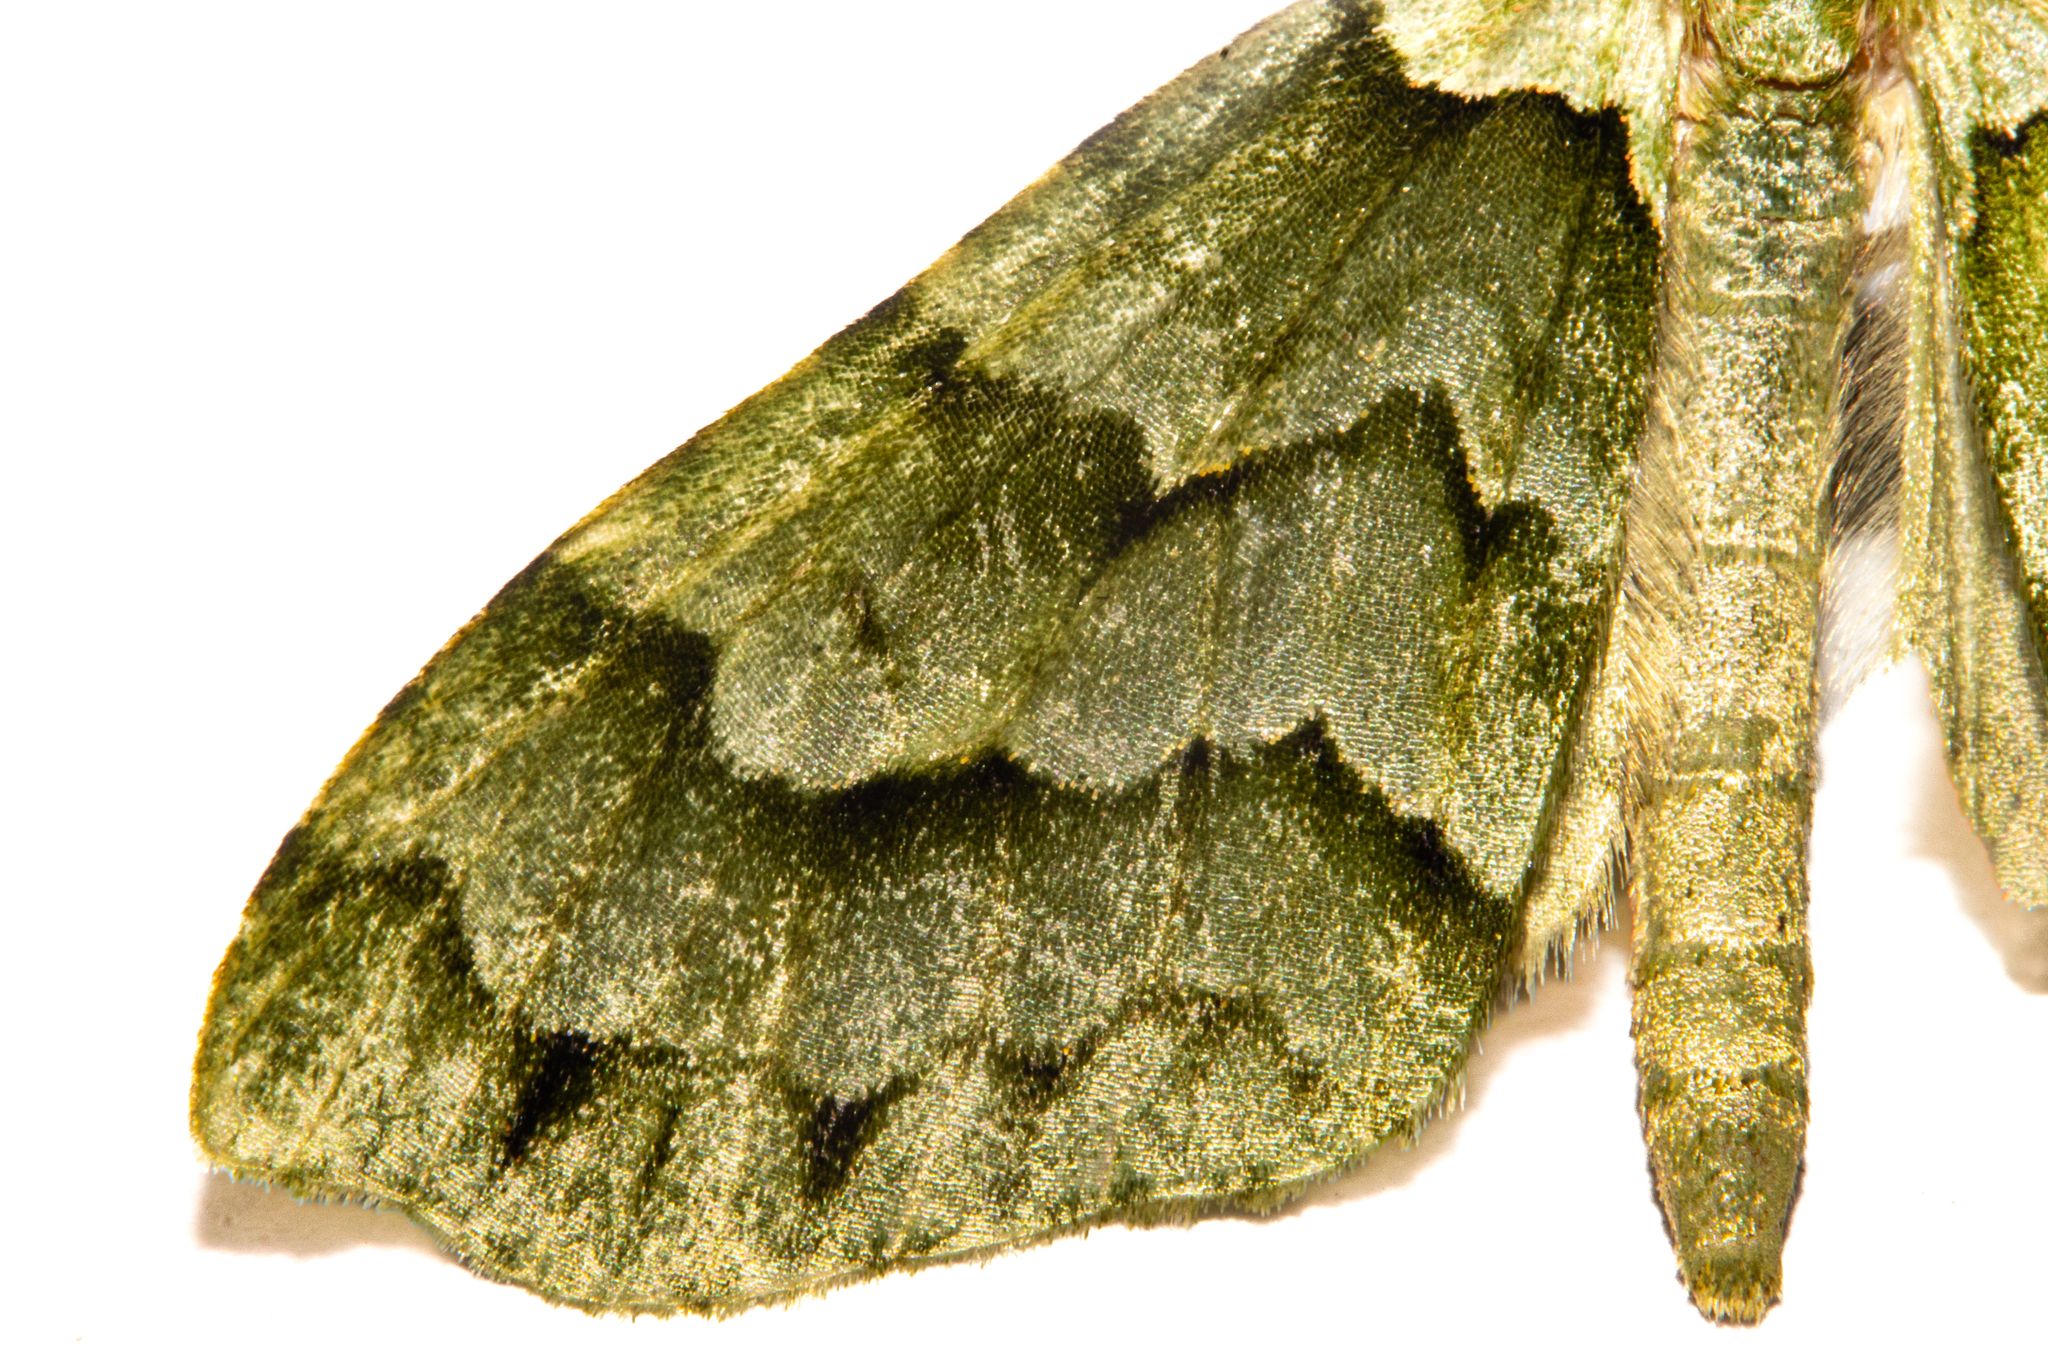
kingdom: Animalia
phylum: Arthropoda
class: Insecta
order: Lepidoptera
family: Geometridae
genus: Tatosoma
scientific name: Tatosoma lestevata
